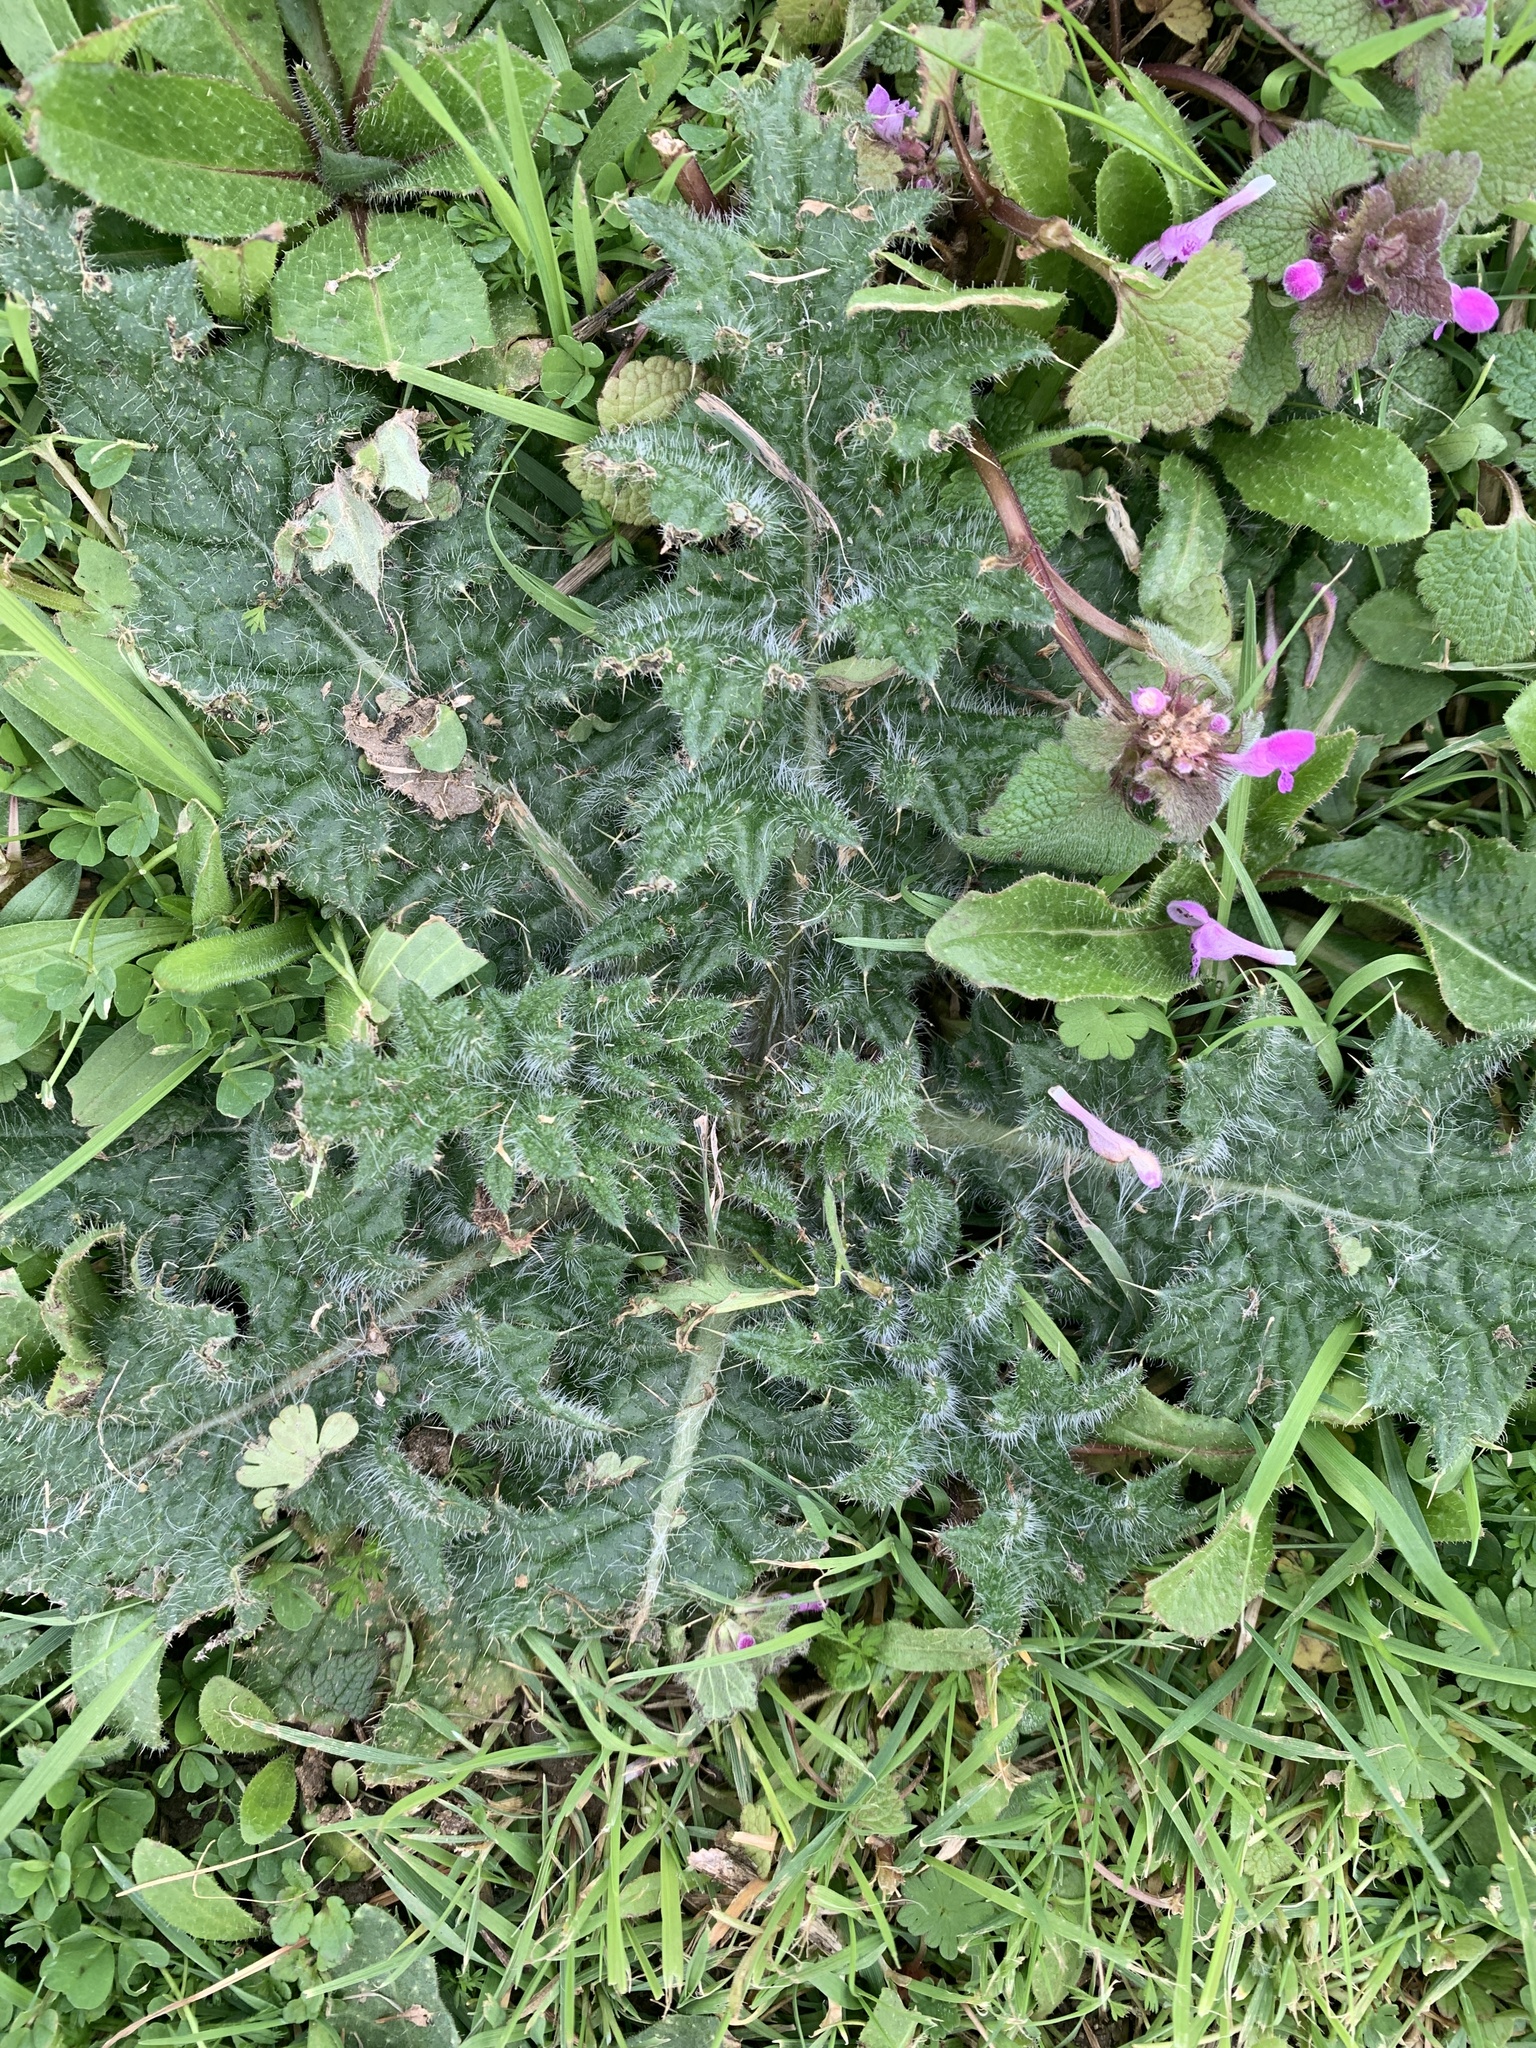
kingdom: Plantae
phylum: Tracheophyta
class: Magnoliopsida
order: Asterales
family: Asteraceae
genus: Cirsium
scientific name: Cirsium vulgare
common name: Bull thistle
